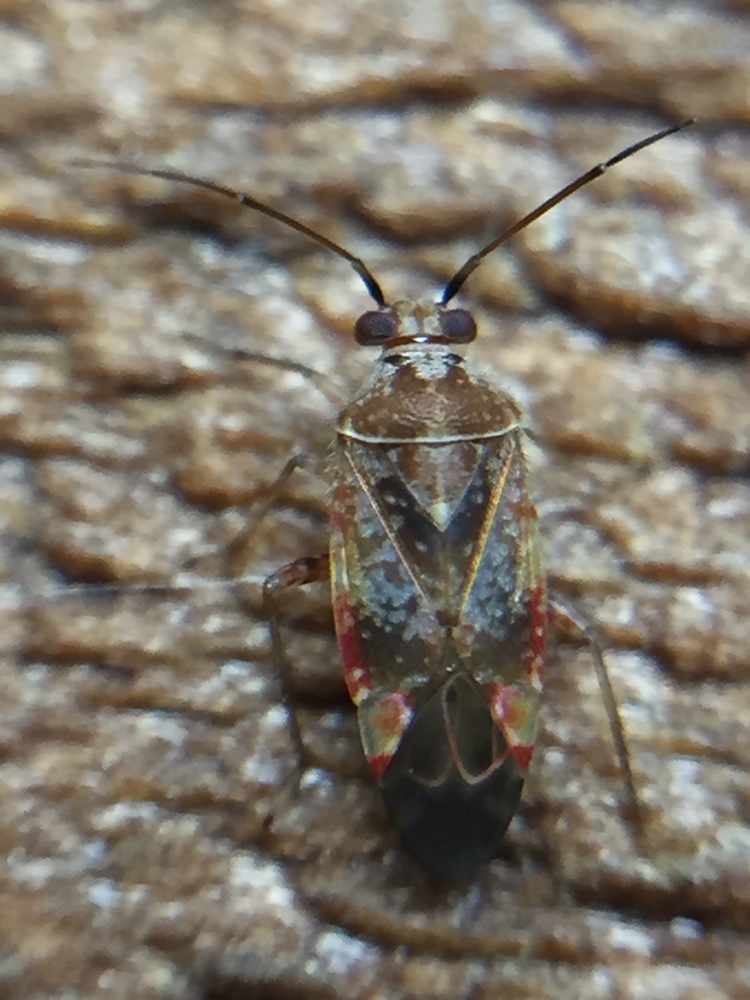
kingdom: Animalia
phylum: Arthropoda
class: Insecta
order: Hemiptera
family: Miridae
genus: Tinginotum
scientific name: Tinginotum minutum
